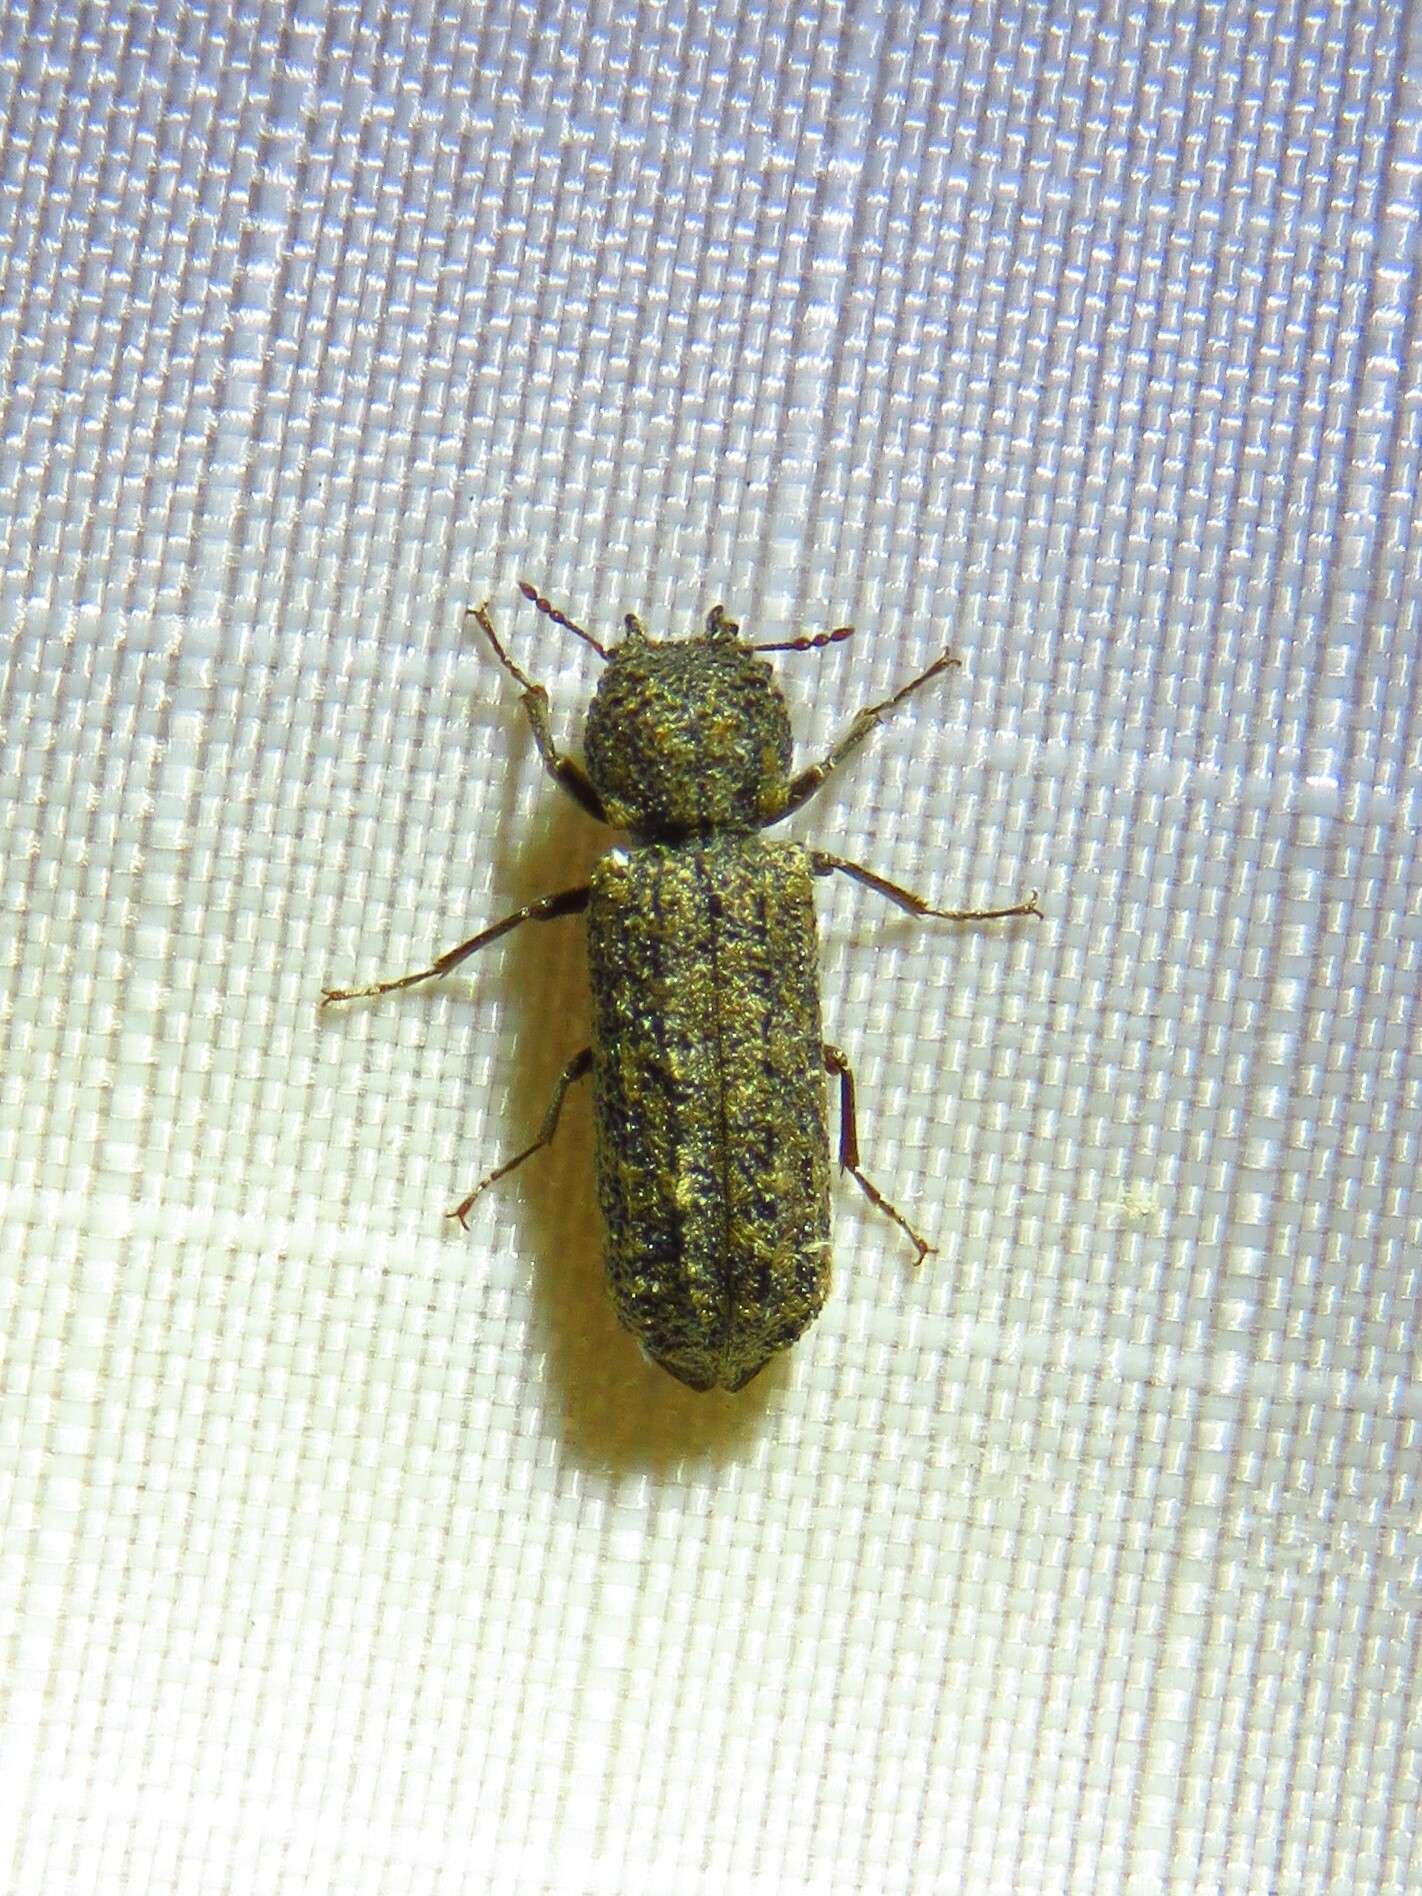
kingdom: Animalia
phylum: Arthropoda
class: Insecta
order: Coleoptera
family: Bostrichidae
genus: Lichenophanes
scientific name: Lichenophanes bicornis
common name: Two-horned powder-post beetle
